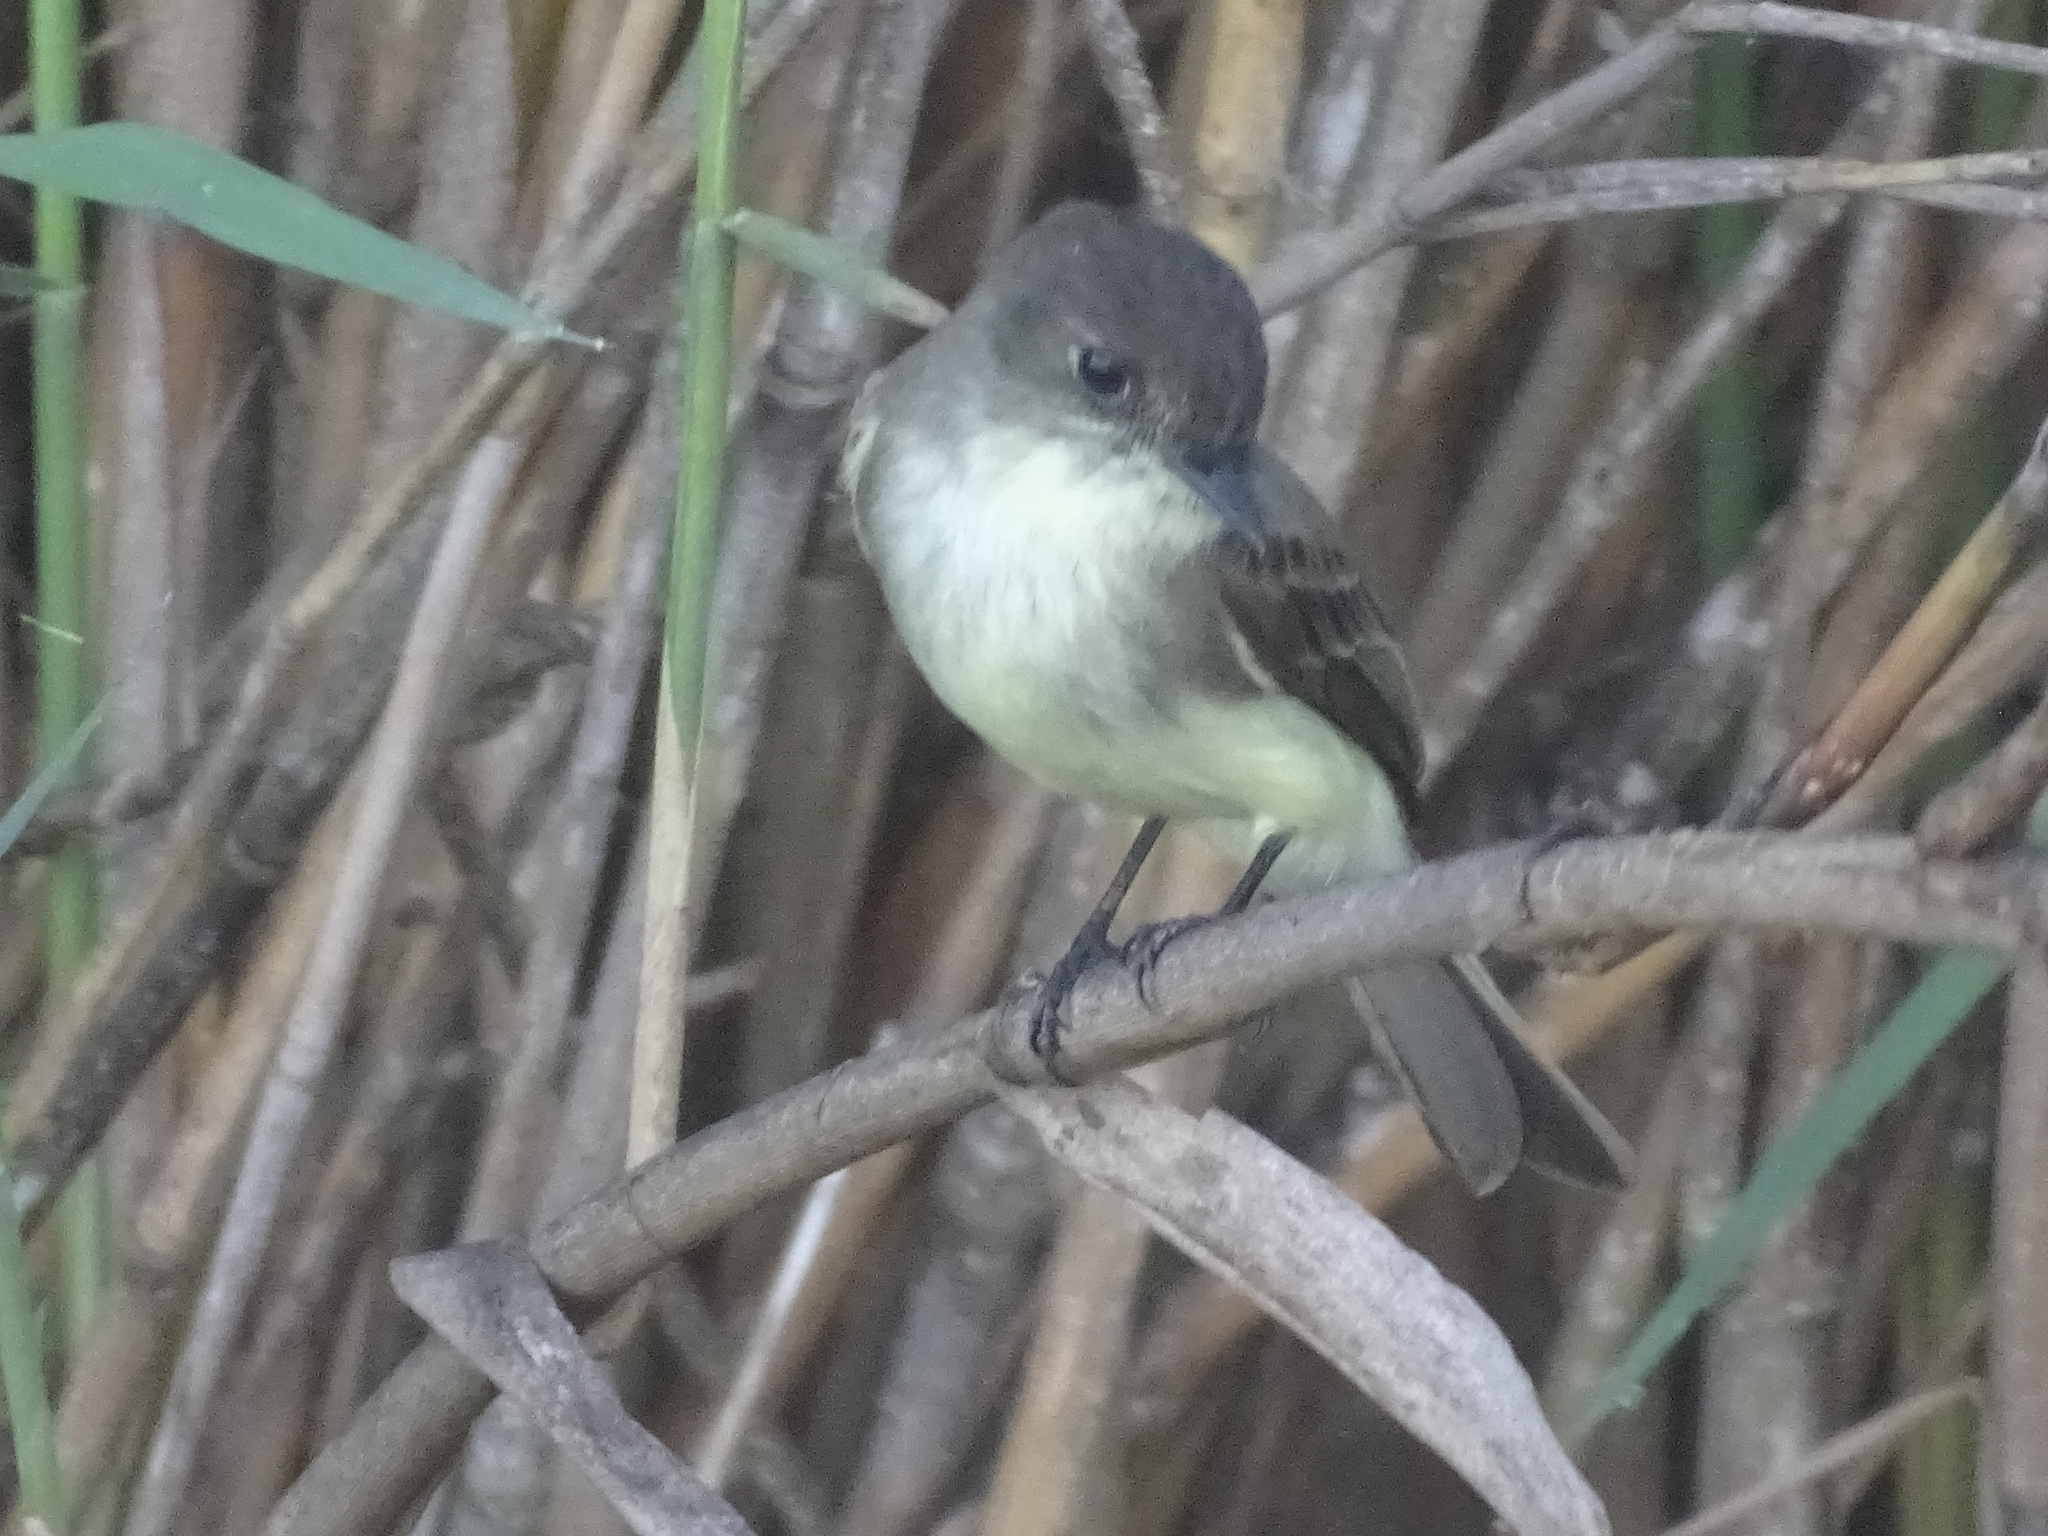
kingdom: Animalia
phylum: Chordata
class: Aves
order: Passeriformes
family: Tyrannidae
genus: Sayornis
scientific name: Sayornis phoebe
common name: Eastern phoebe
